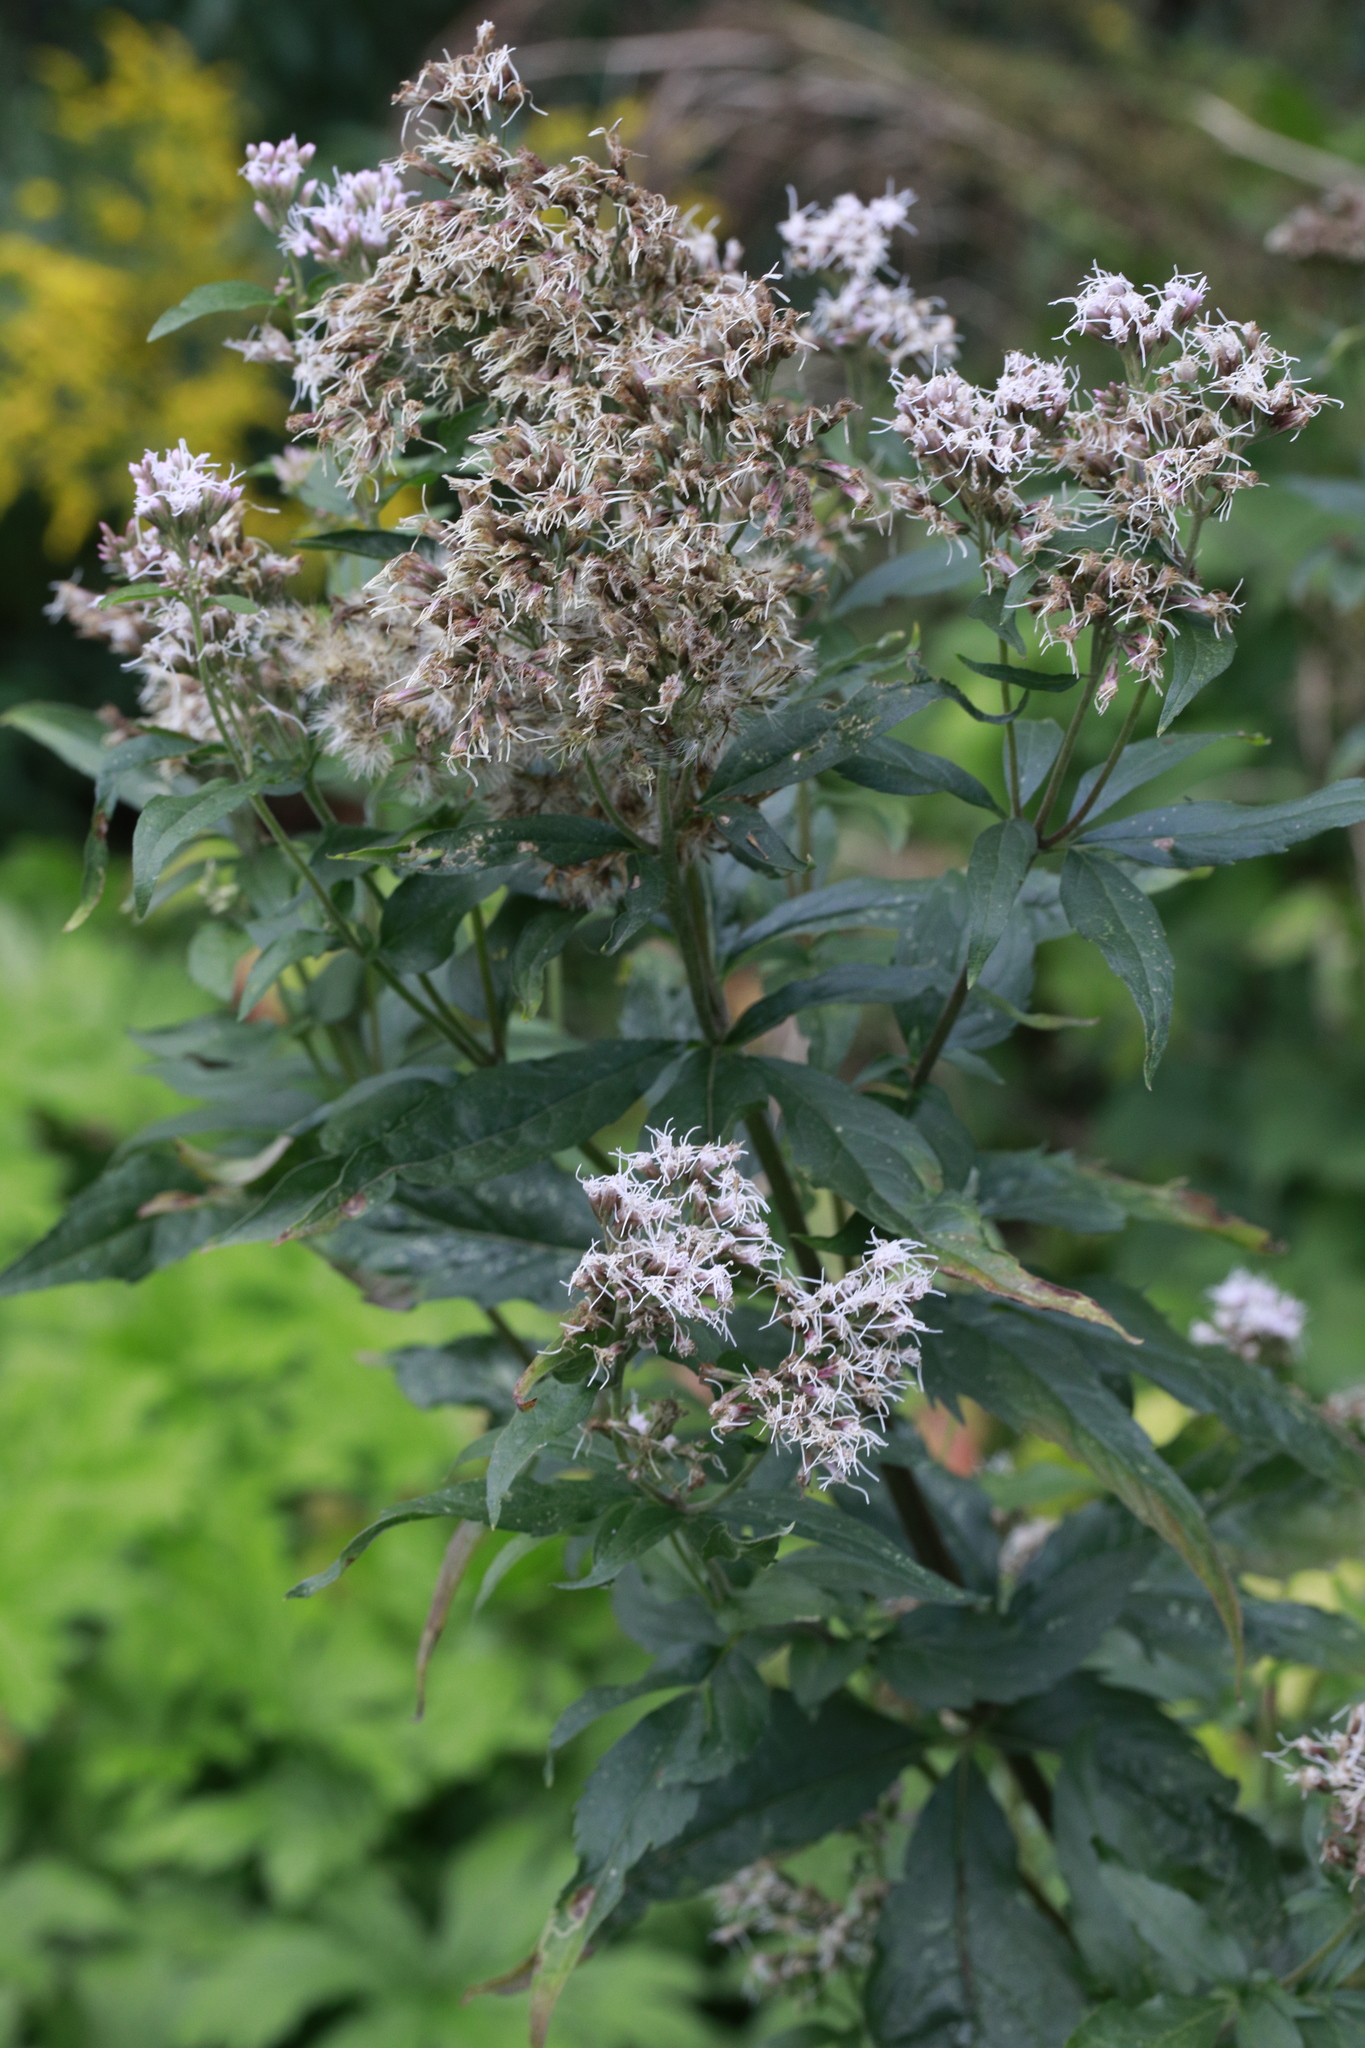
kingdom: Plantae
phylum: Tracheophyta
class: Magnoliopsida
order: Asterales
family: Asteraceae
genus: Eupatorium
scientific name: Eupatorium cannabinum
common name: Hemp-agrimony
